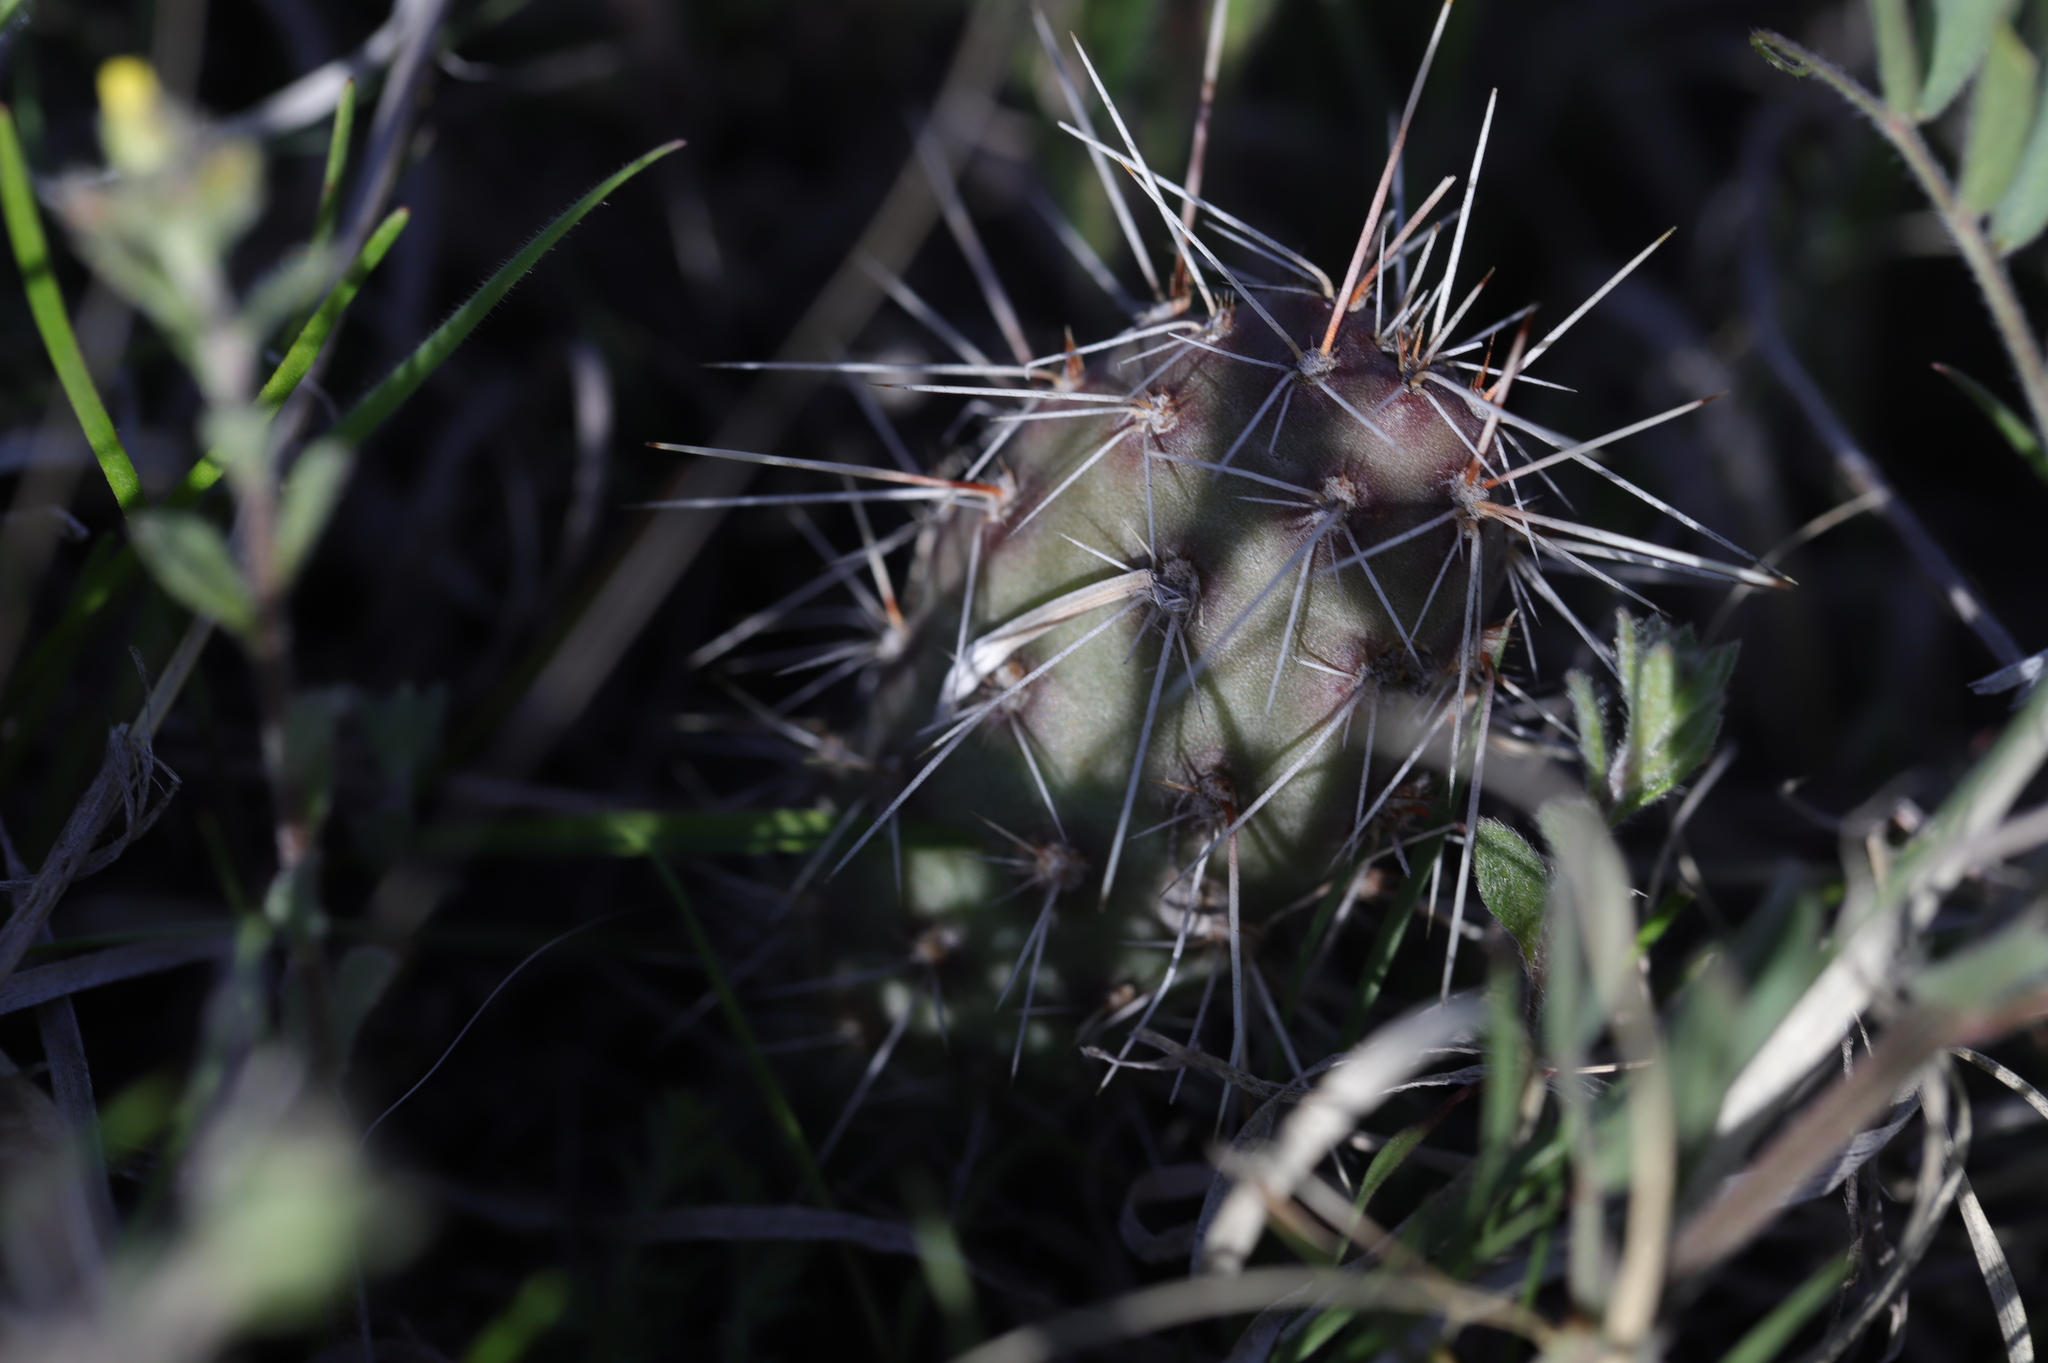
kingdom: Plantae
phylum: Tracheophyta
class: Magnoliopsida
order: Caryophyllales
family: Cactaceae
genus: Opuntia
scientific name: Opuntia polyacantha
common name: Plains prickly-pear
